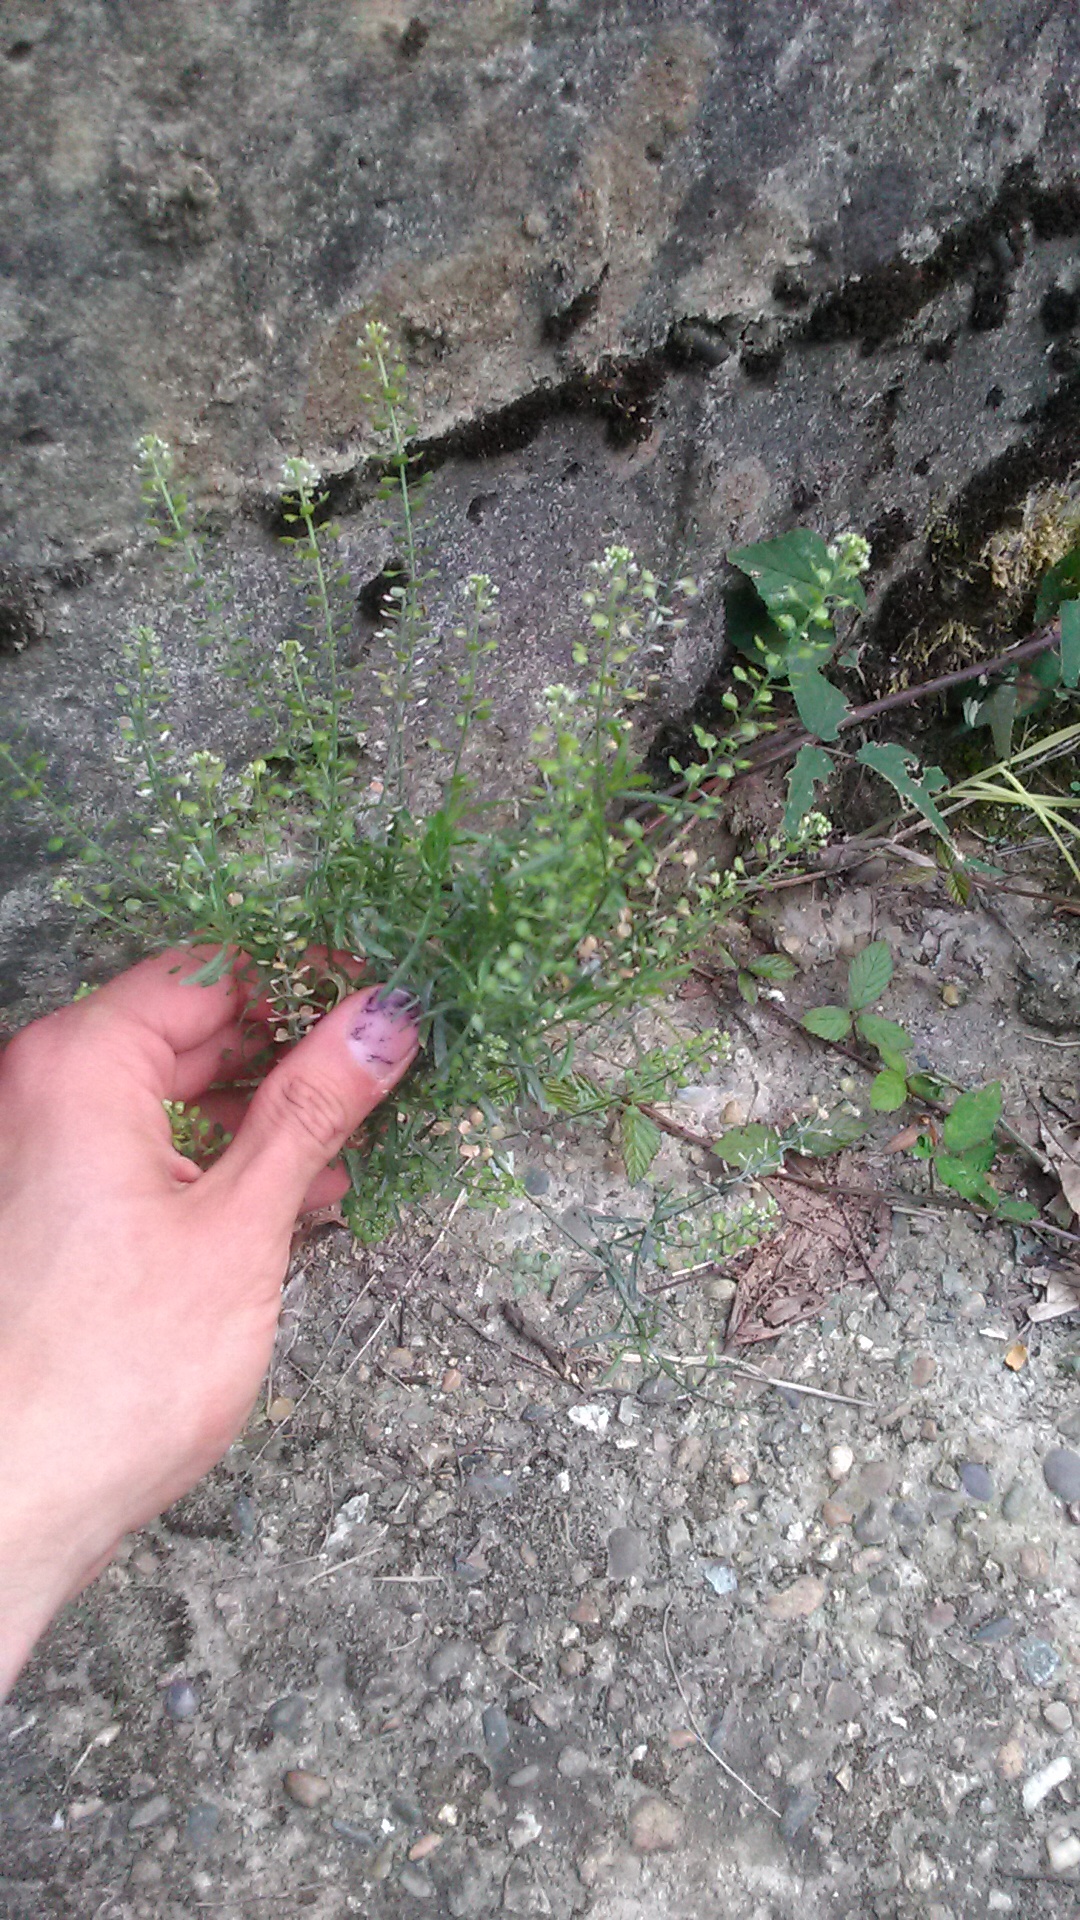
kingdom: Plantae
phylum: Tracheophyta
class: Magnoliopsida
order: Brassicales
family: Brassicaceae
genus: Lepidium
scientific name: Lepidium virginicum
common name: Least pepperwort
